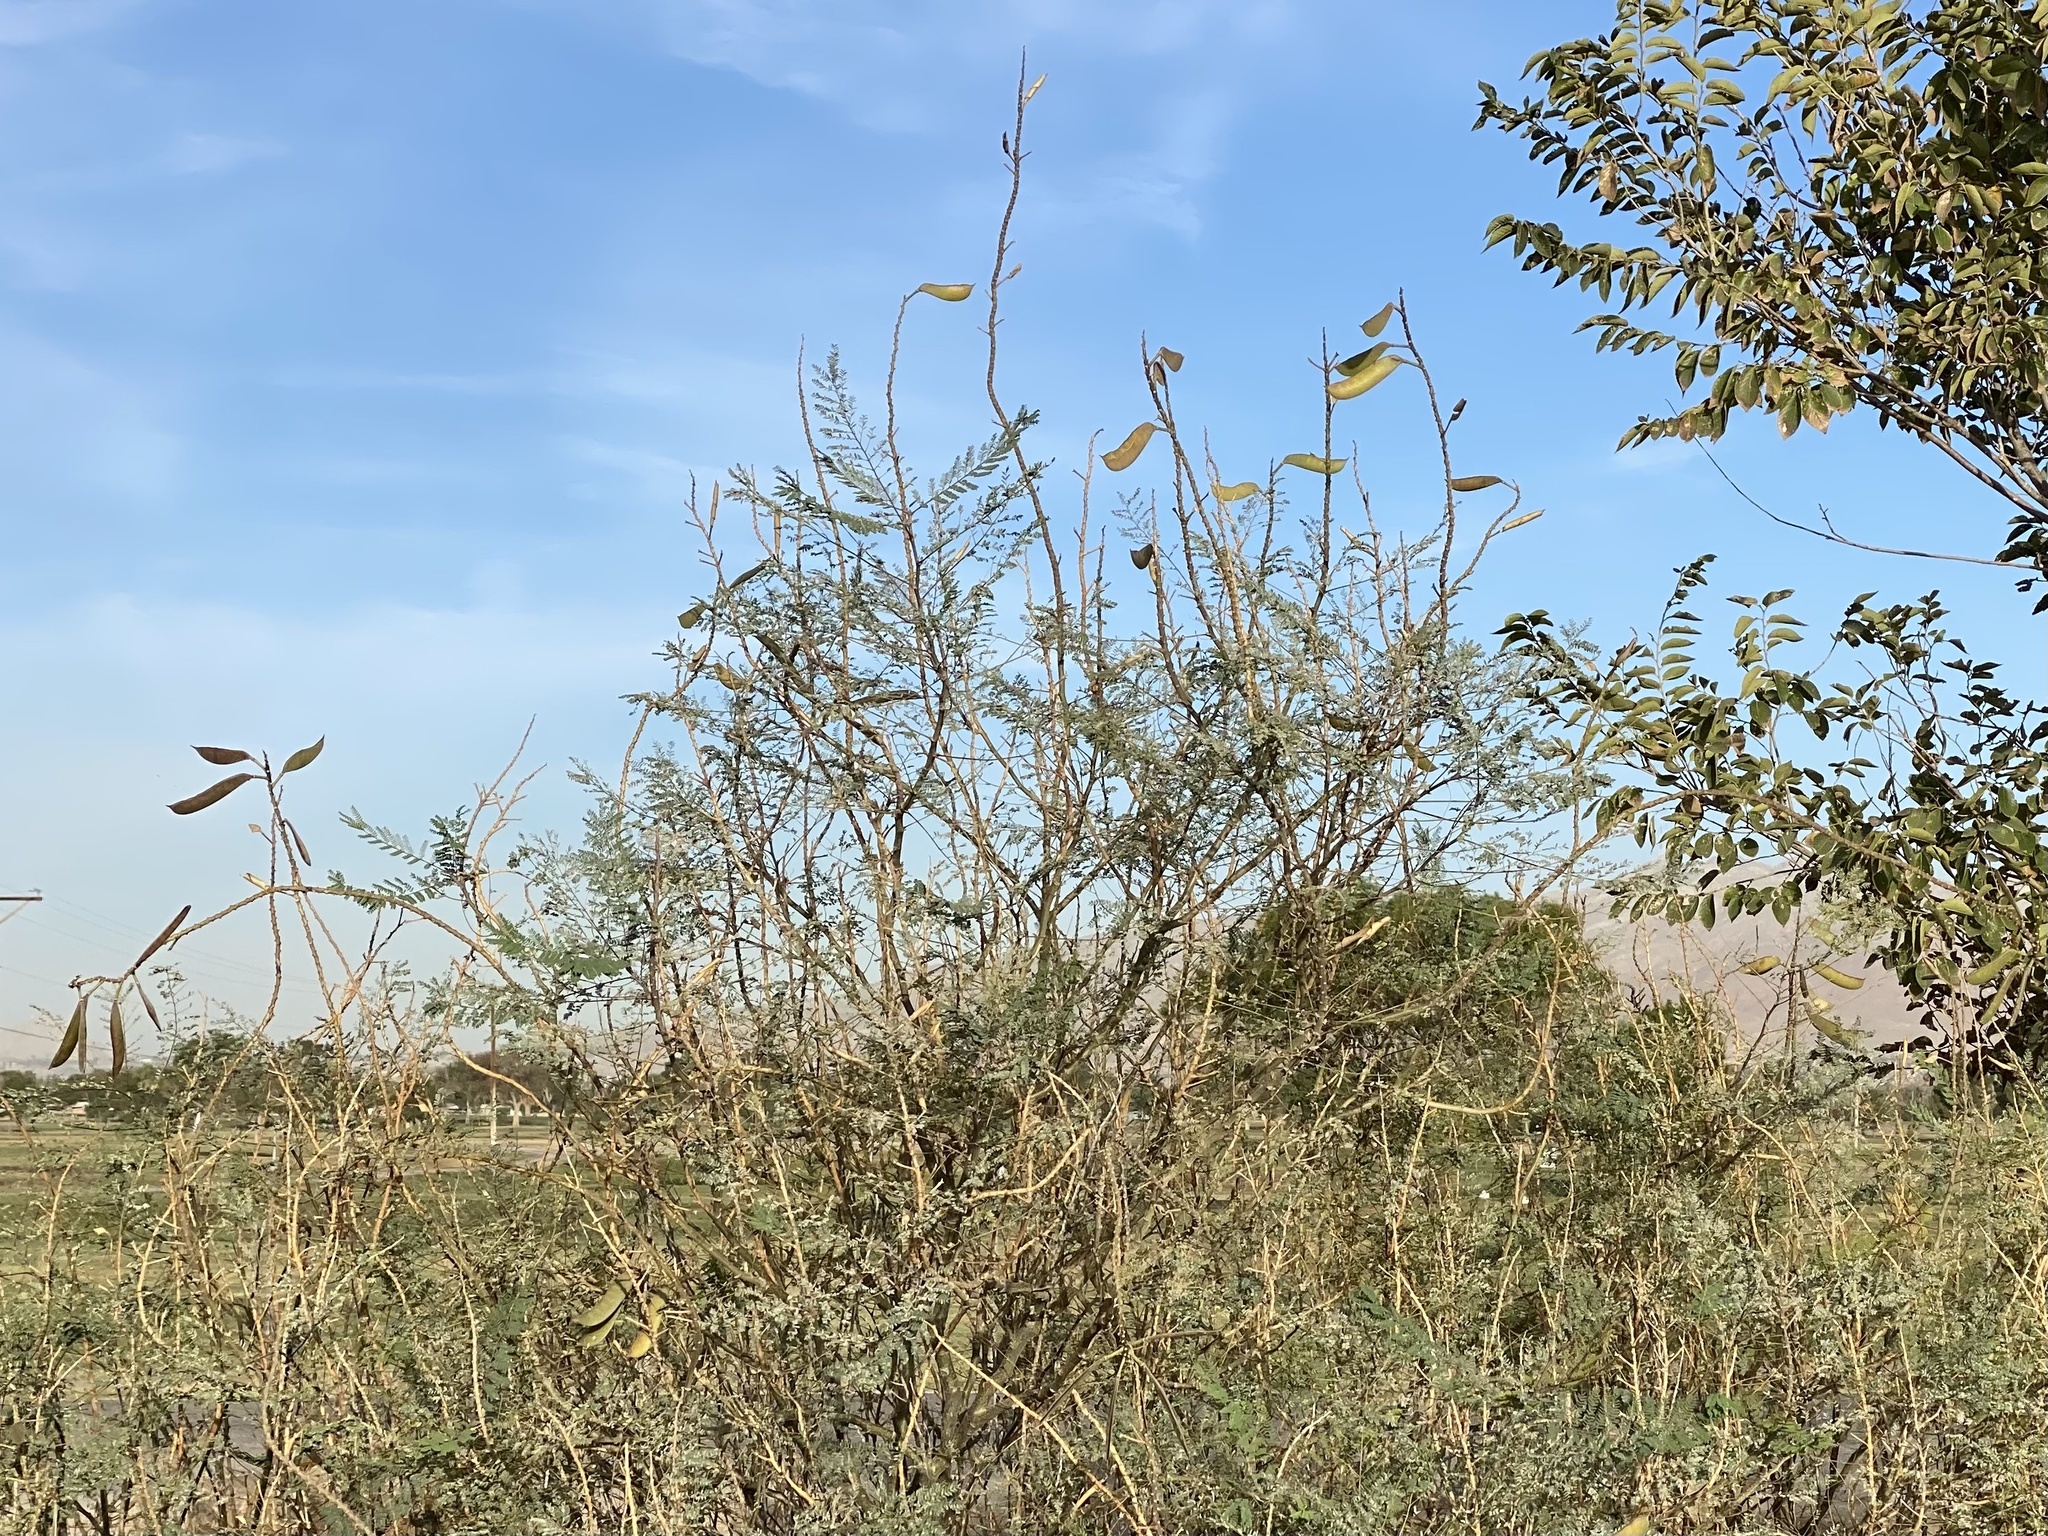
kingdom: Plantae
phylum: Tracheophyta
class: Magnoliopsida
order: Fabales
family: Fabaceae
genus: Erythrostemon
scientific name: Erythrostemon gilliesii
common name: Bird-of-paradise shrub
